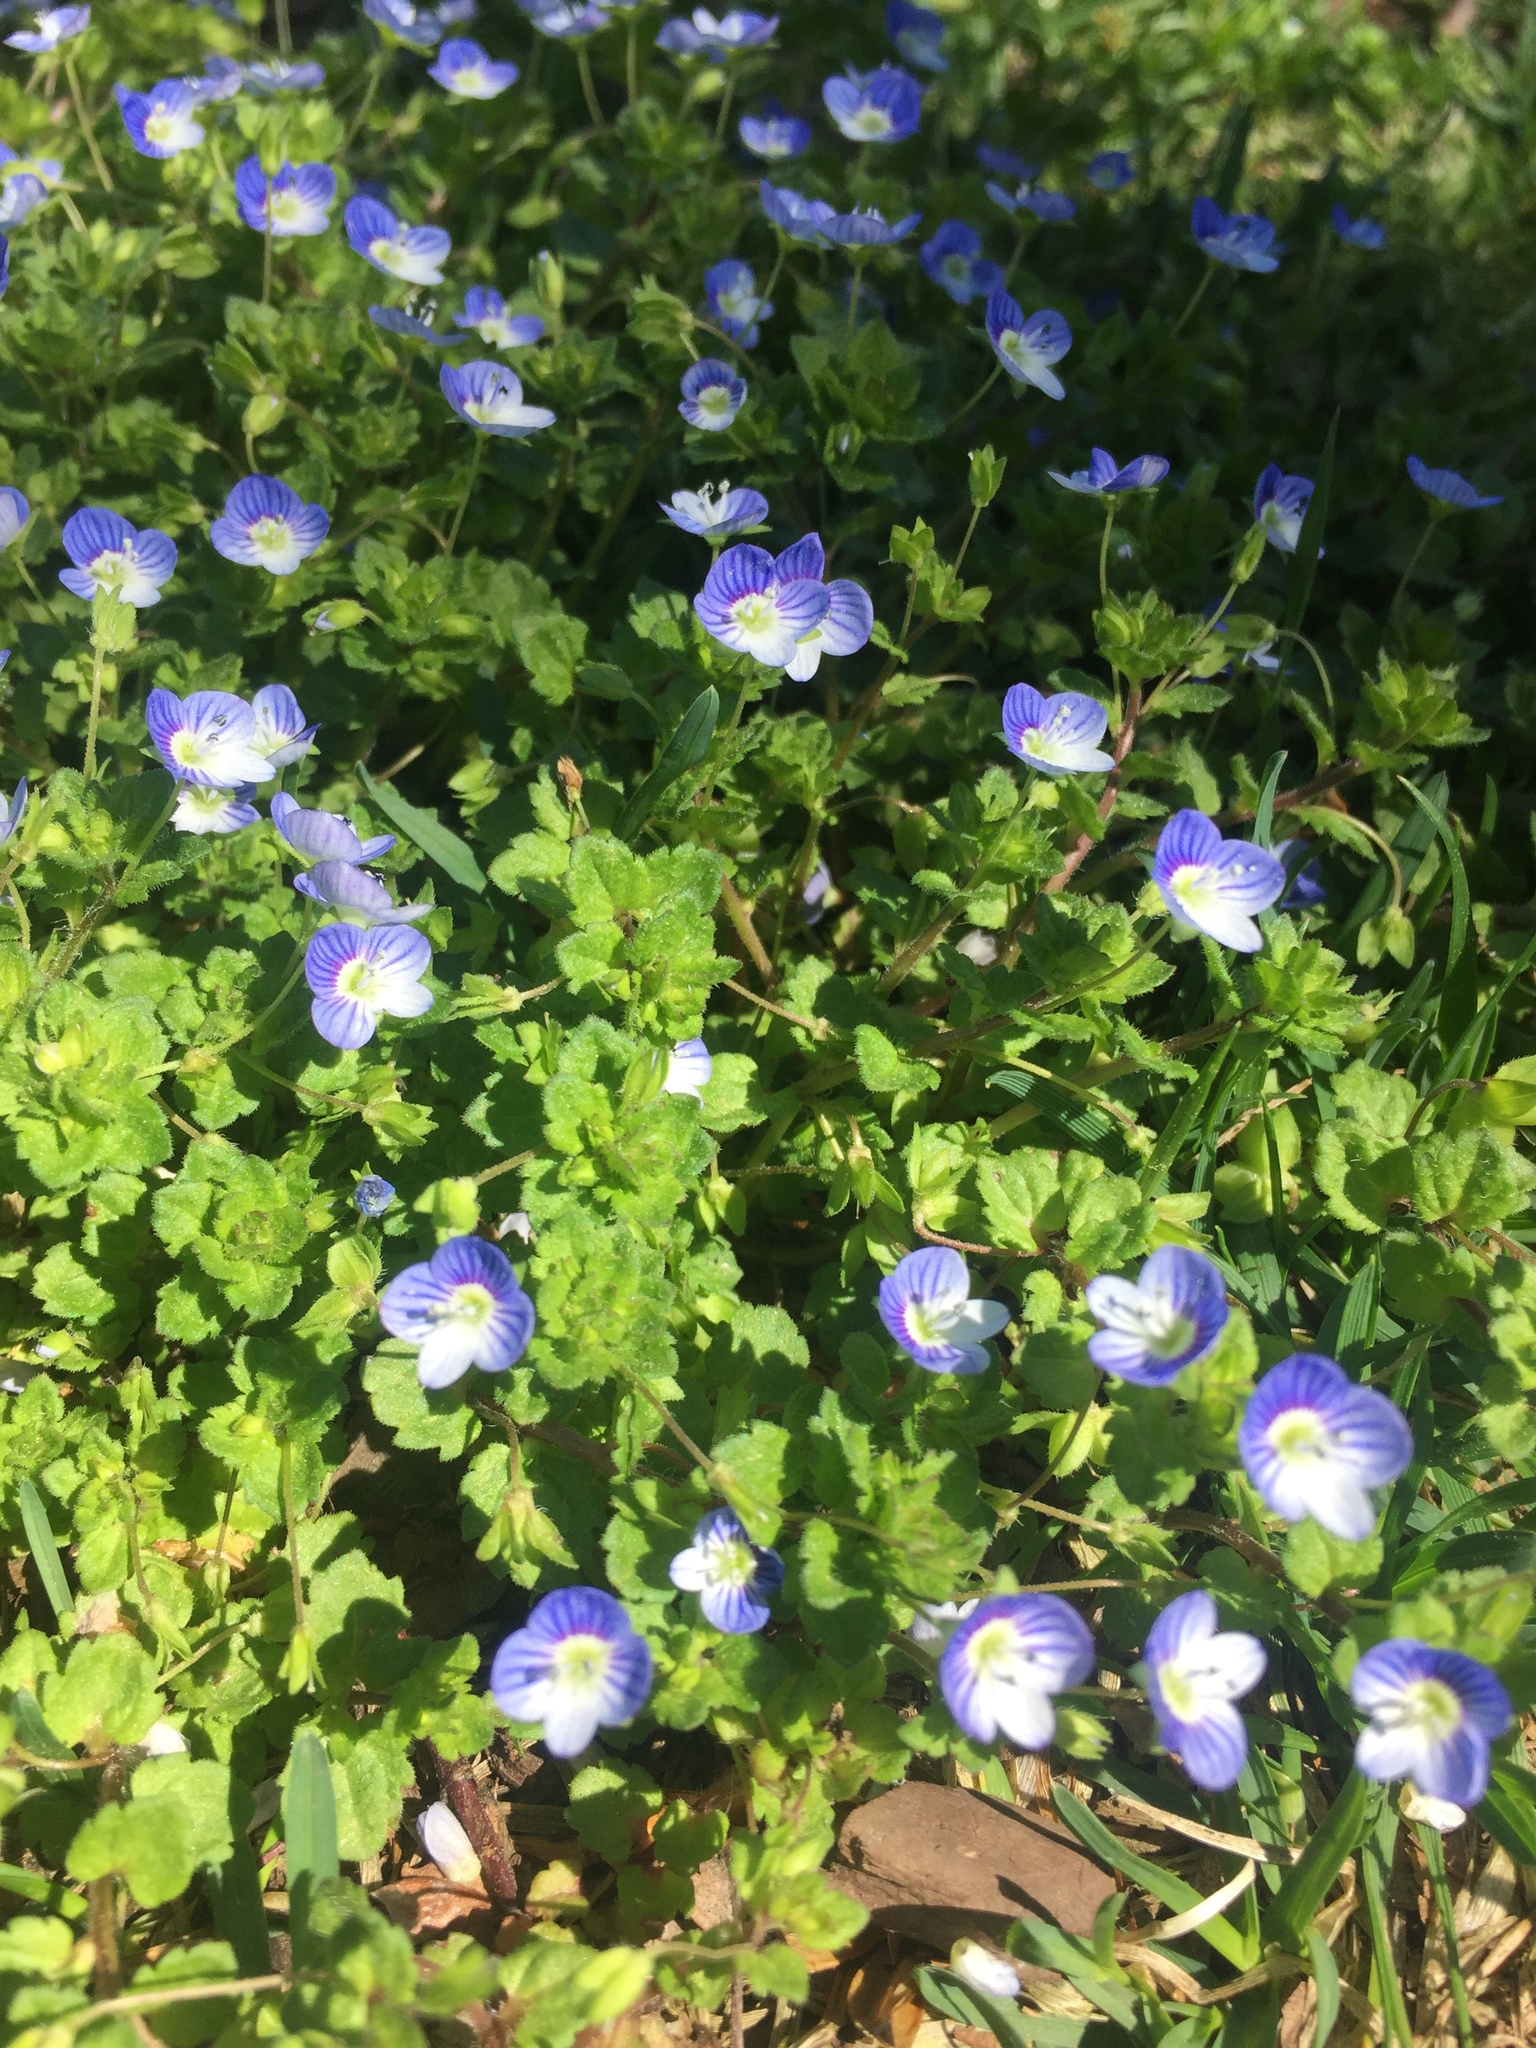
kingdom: Plantae
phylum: Tracheophyta
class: Magnoliopsida
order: Lamiales
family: Plantaginaceae
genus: Veronica
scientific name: Veronica persica
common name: Common field-speedwell
